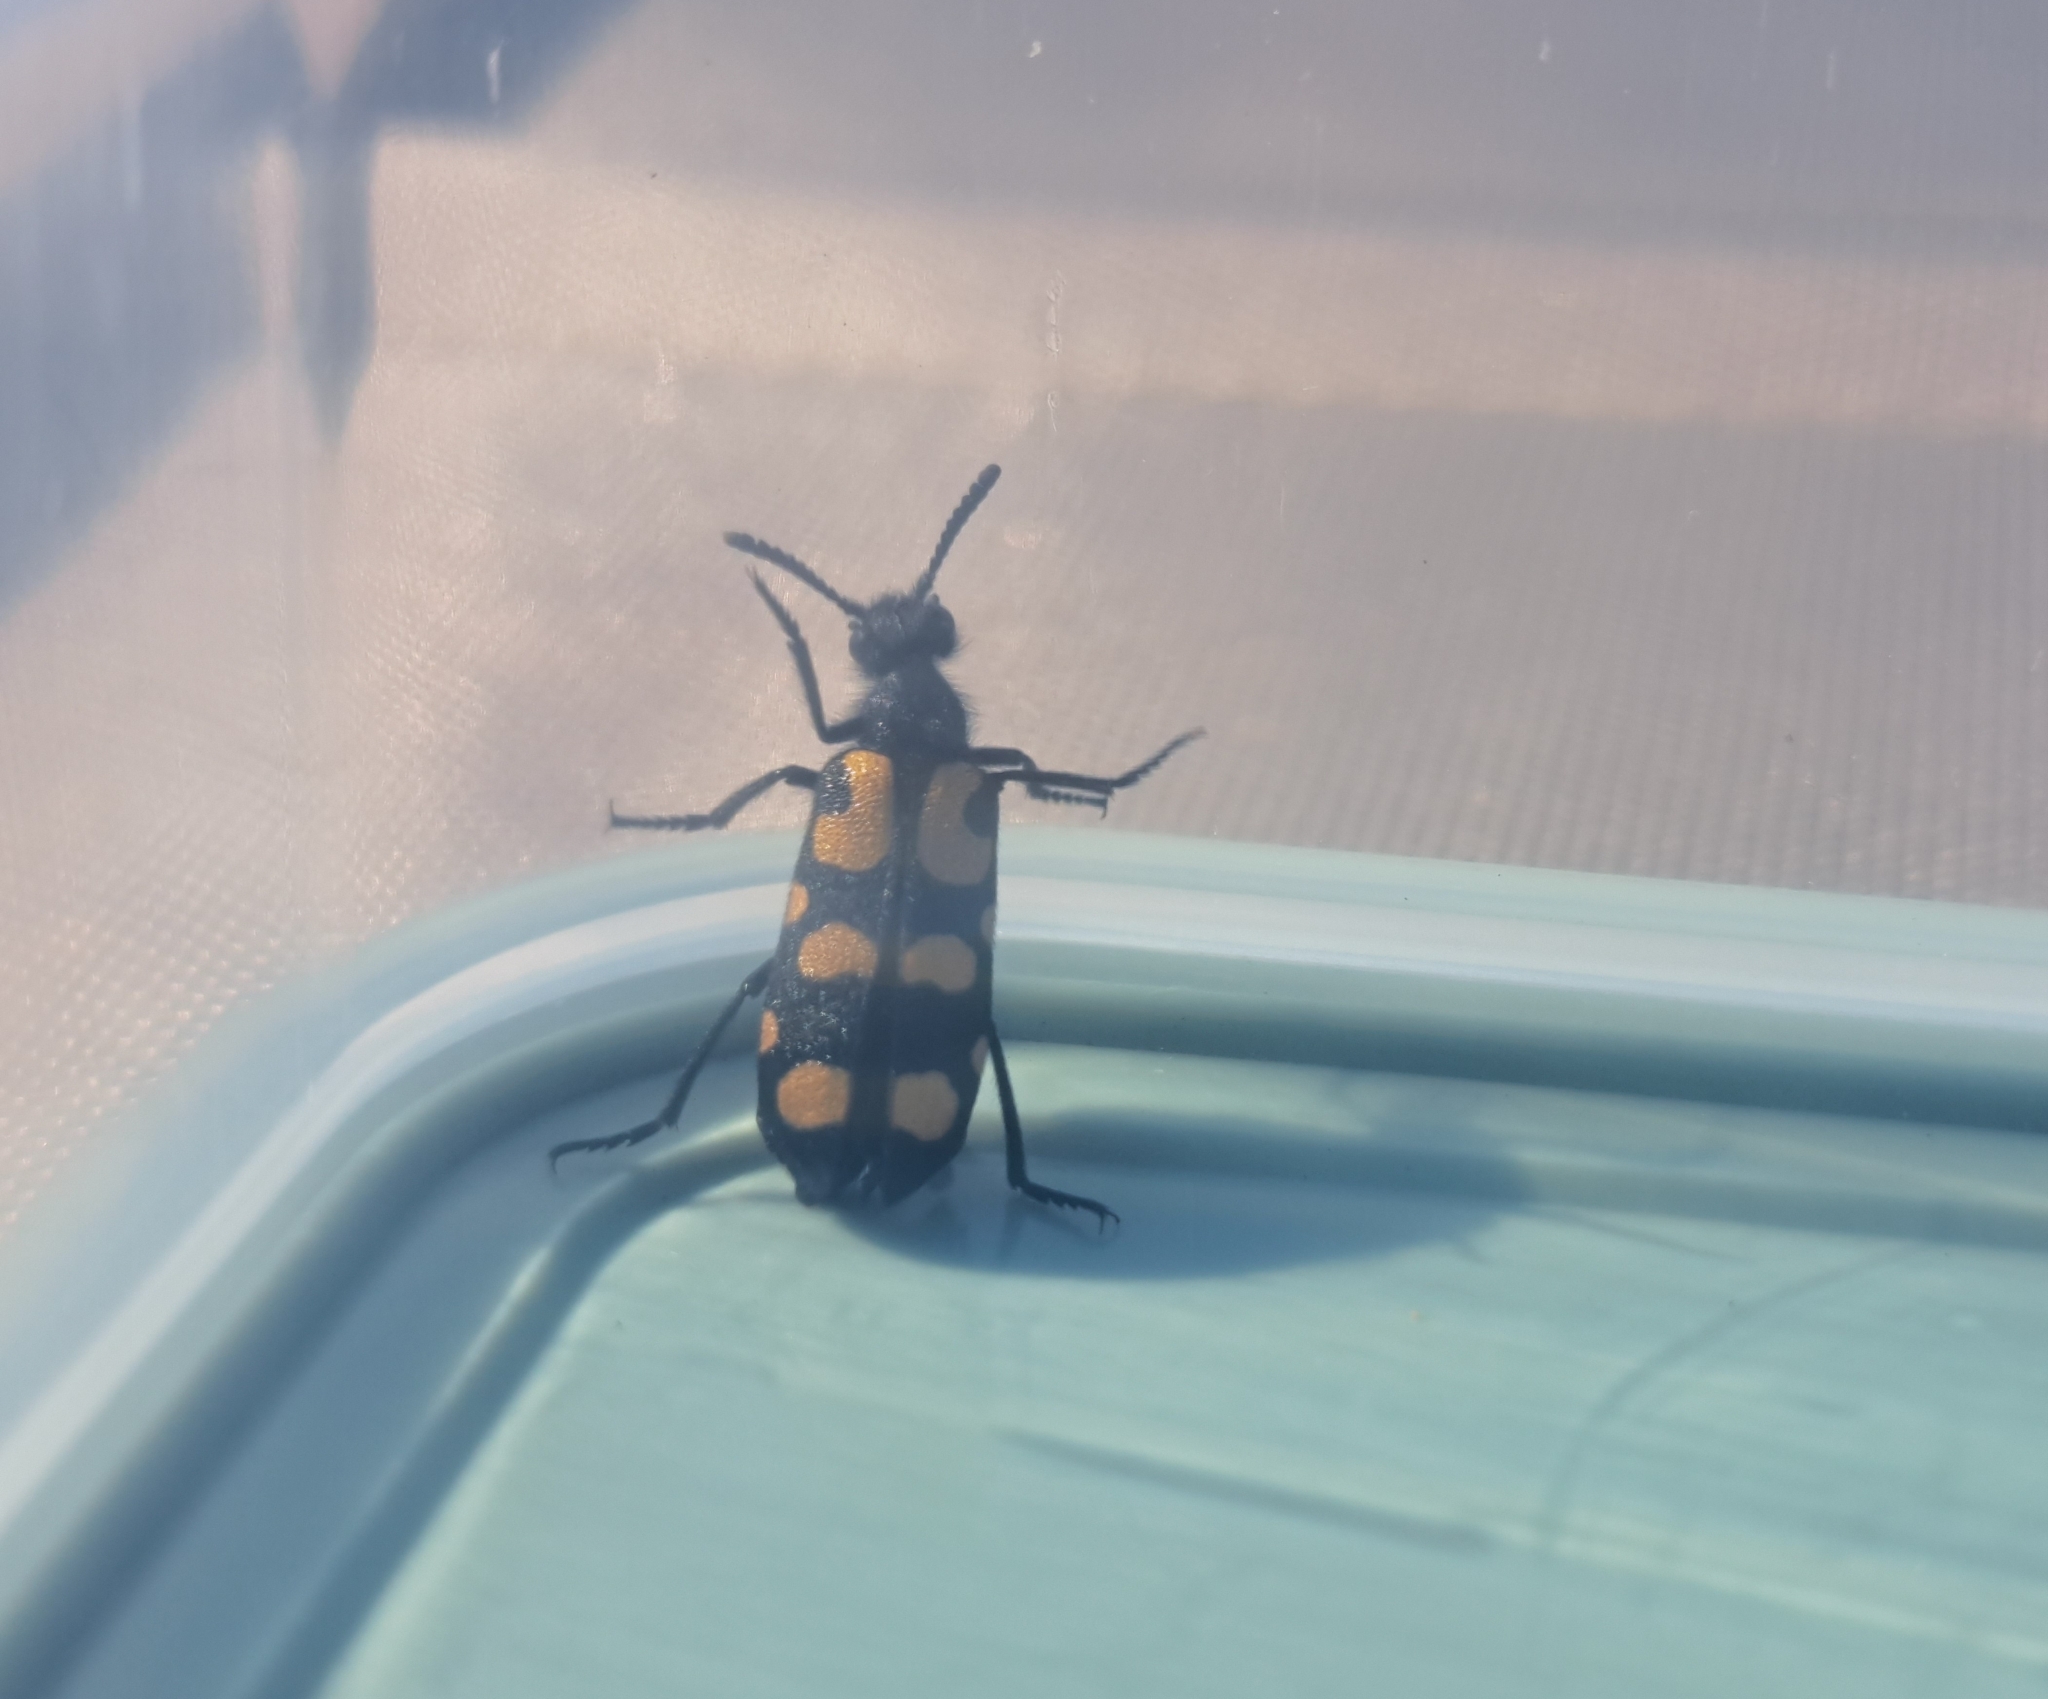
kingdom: Animalia
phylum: Arthropoda
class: Insecta
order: Coleoptera
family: Meloidae
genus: Ceroctis
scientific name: Ceroctis capensis
